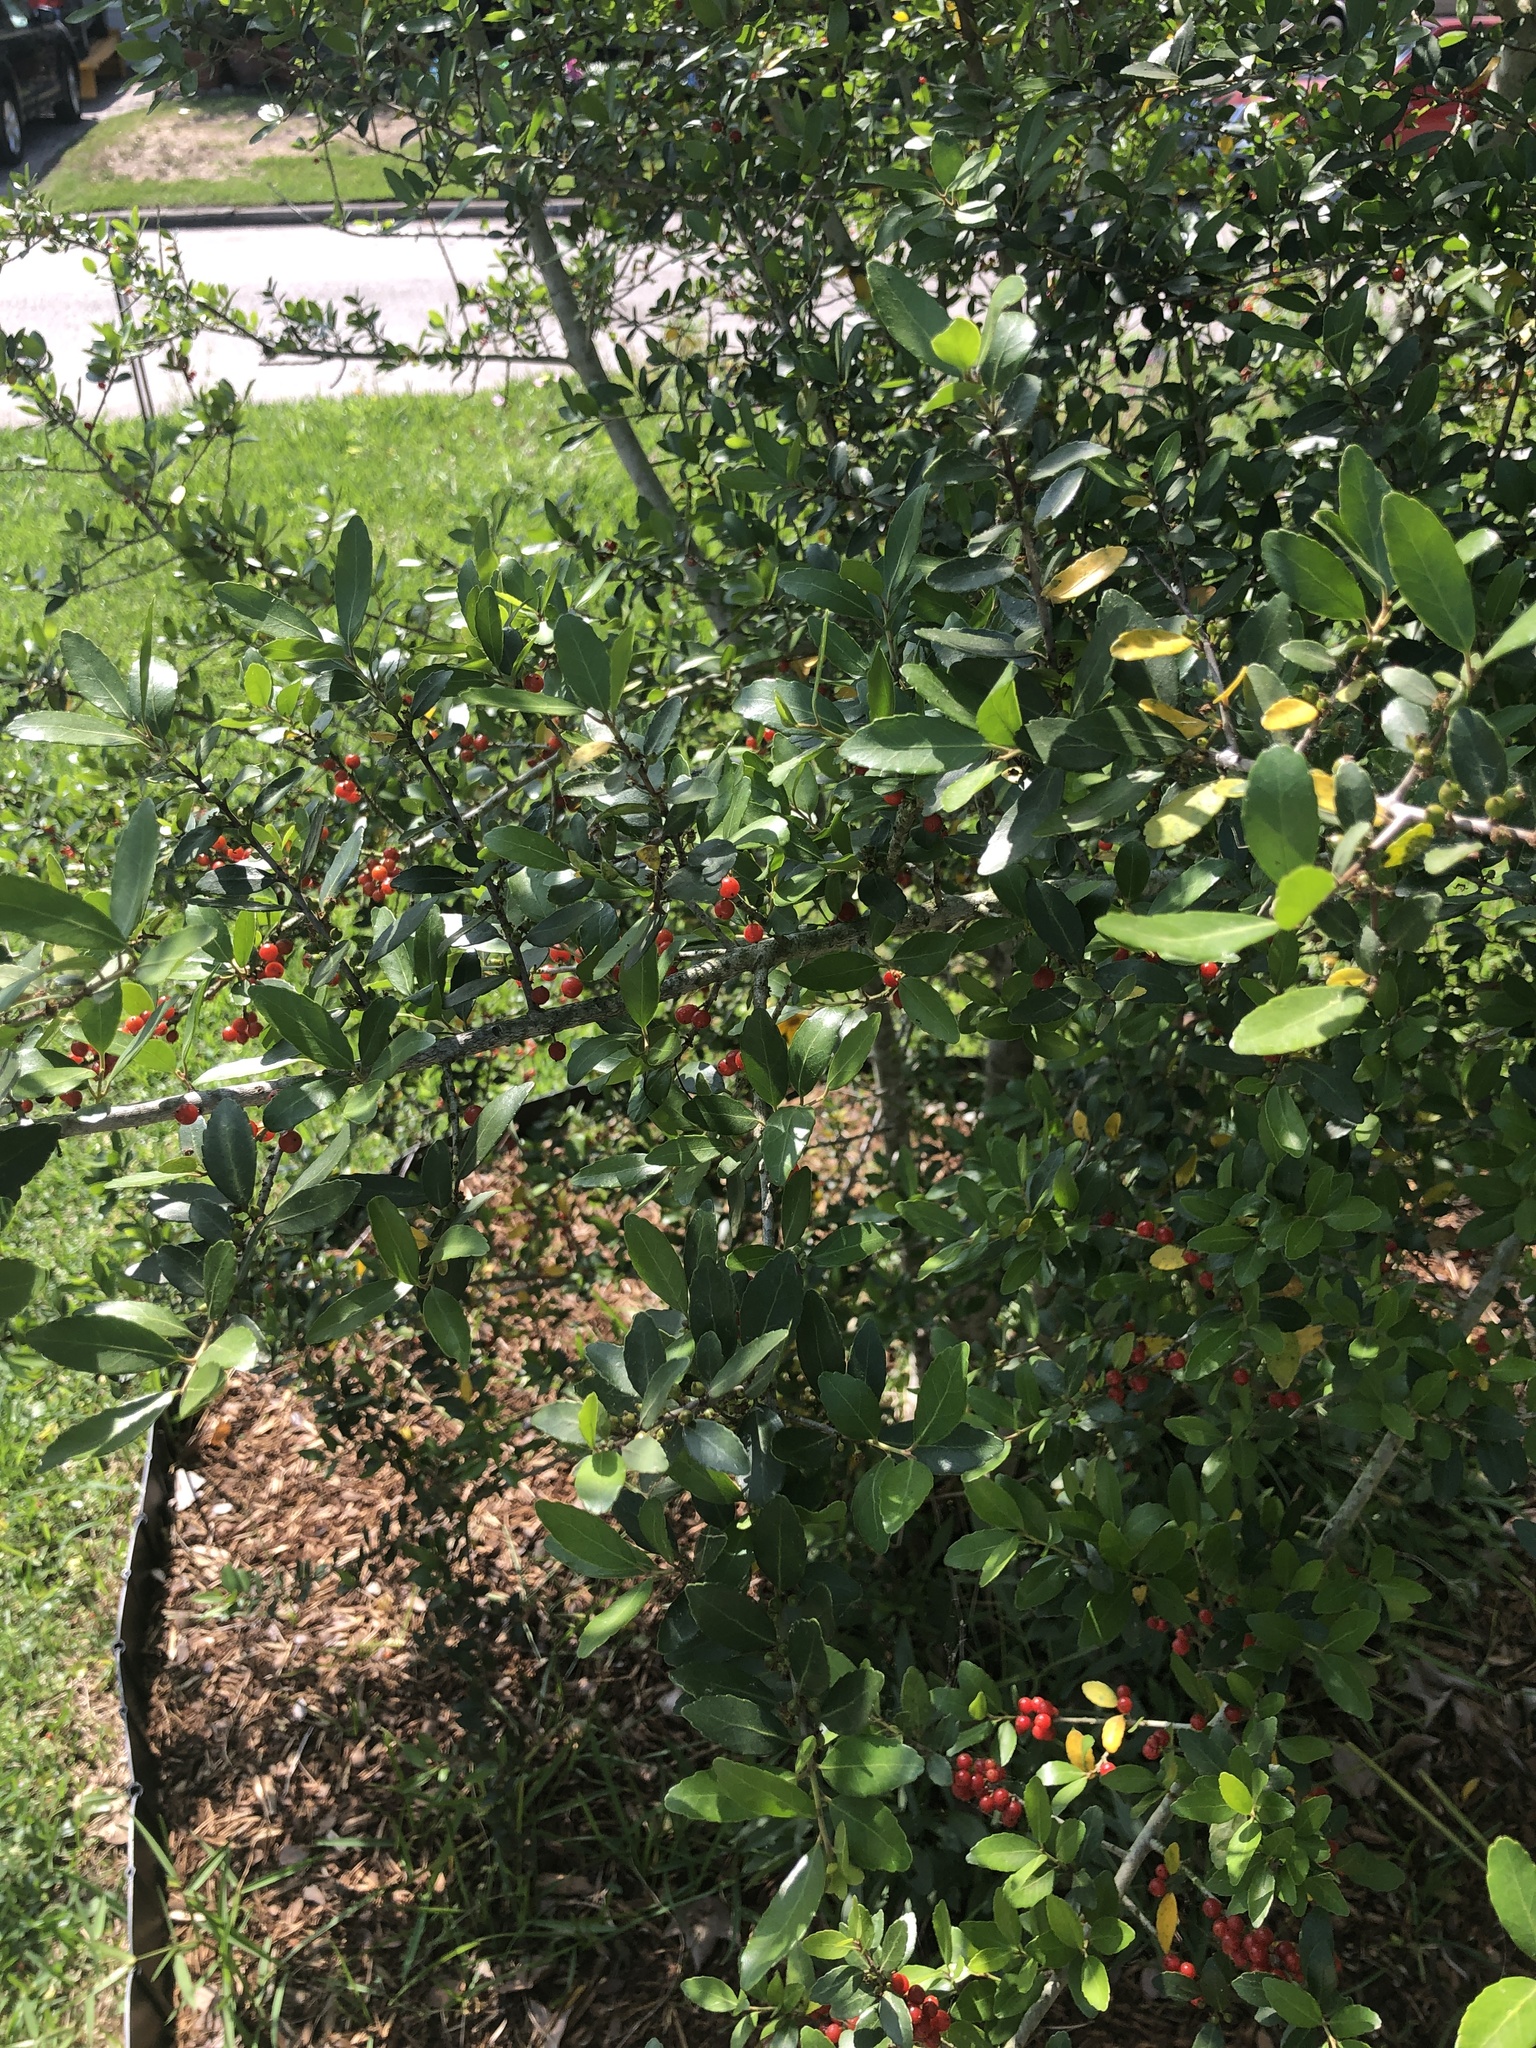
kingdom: Plantae
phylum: Tracheophyta
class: Magnoliopsida
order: Aquifoliales
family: Aquifoliaceae
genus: Ilex
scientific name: Ilex vomitoria
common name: Yaupon holly
